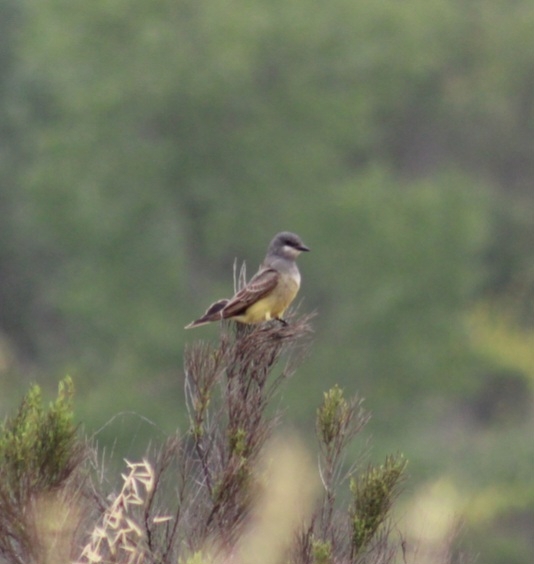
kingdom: Animalia
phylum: Chordata
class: Aves
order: Passeriformes
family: Tyrannidae
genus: Tyrannus
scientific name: Tyrannus vociferans
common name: Cassin's kingbird
